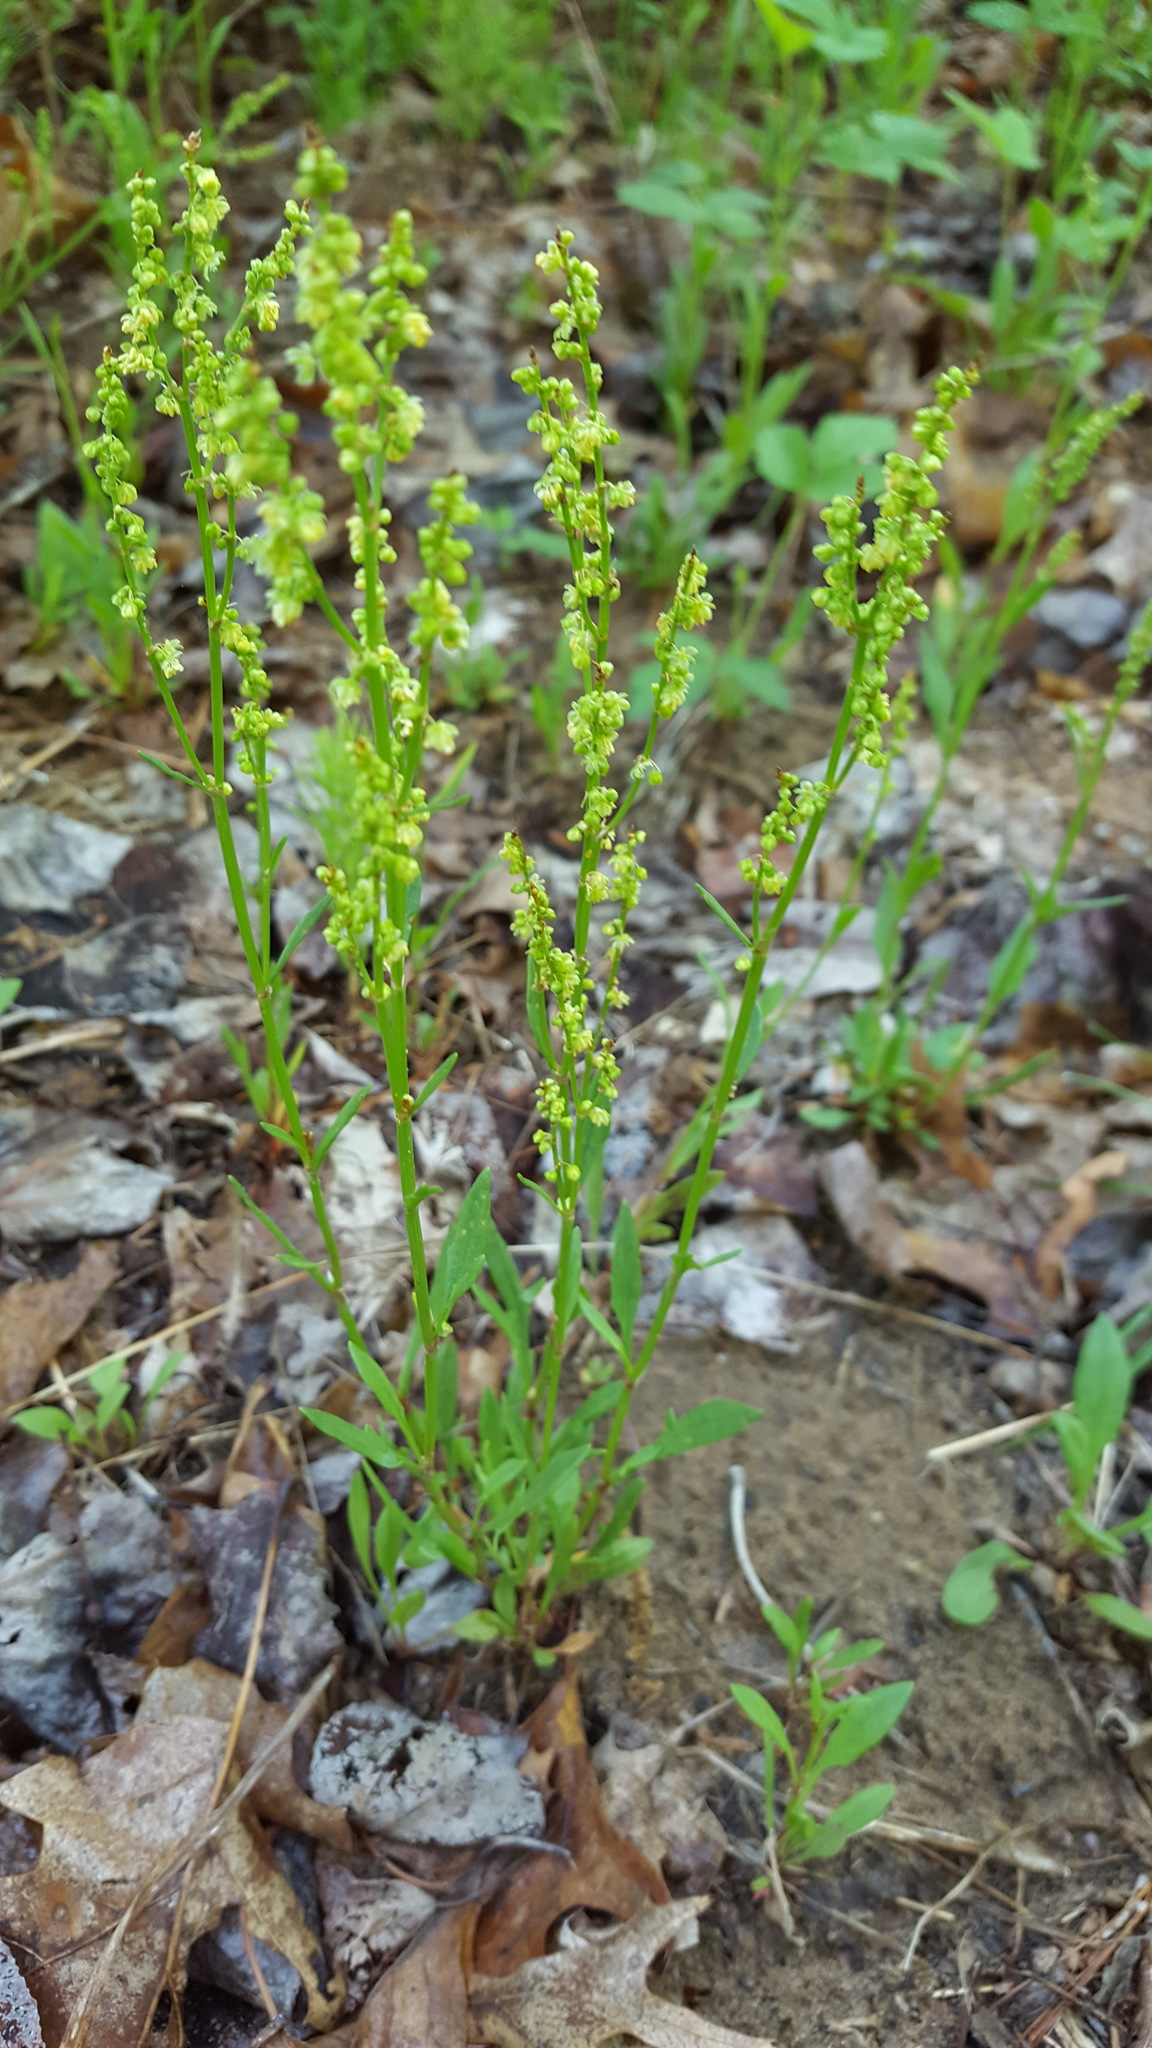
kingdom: Plantae
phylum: Tracheophyta
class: Magnoliopsida
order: Caryophyllales
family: Polygonaceae
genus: Rumex
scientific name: Rumex acetosella
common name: Common sheep sorrel
